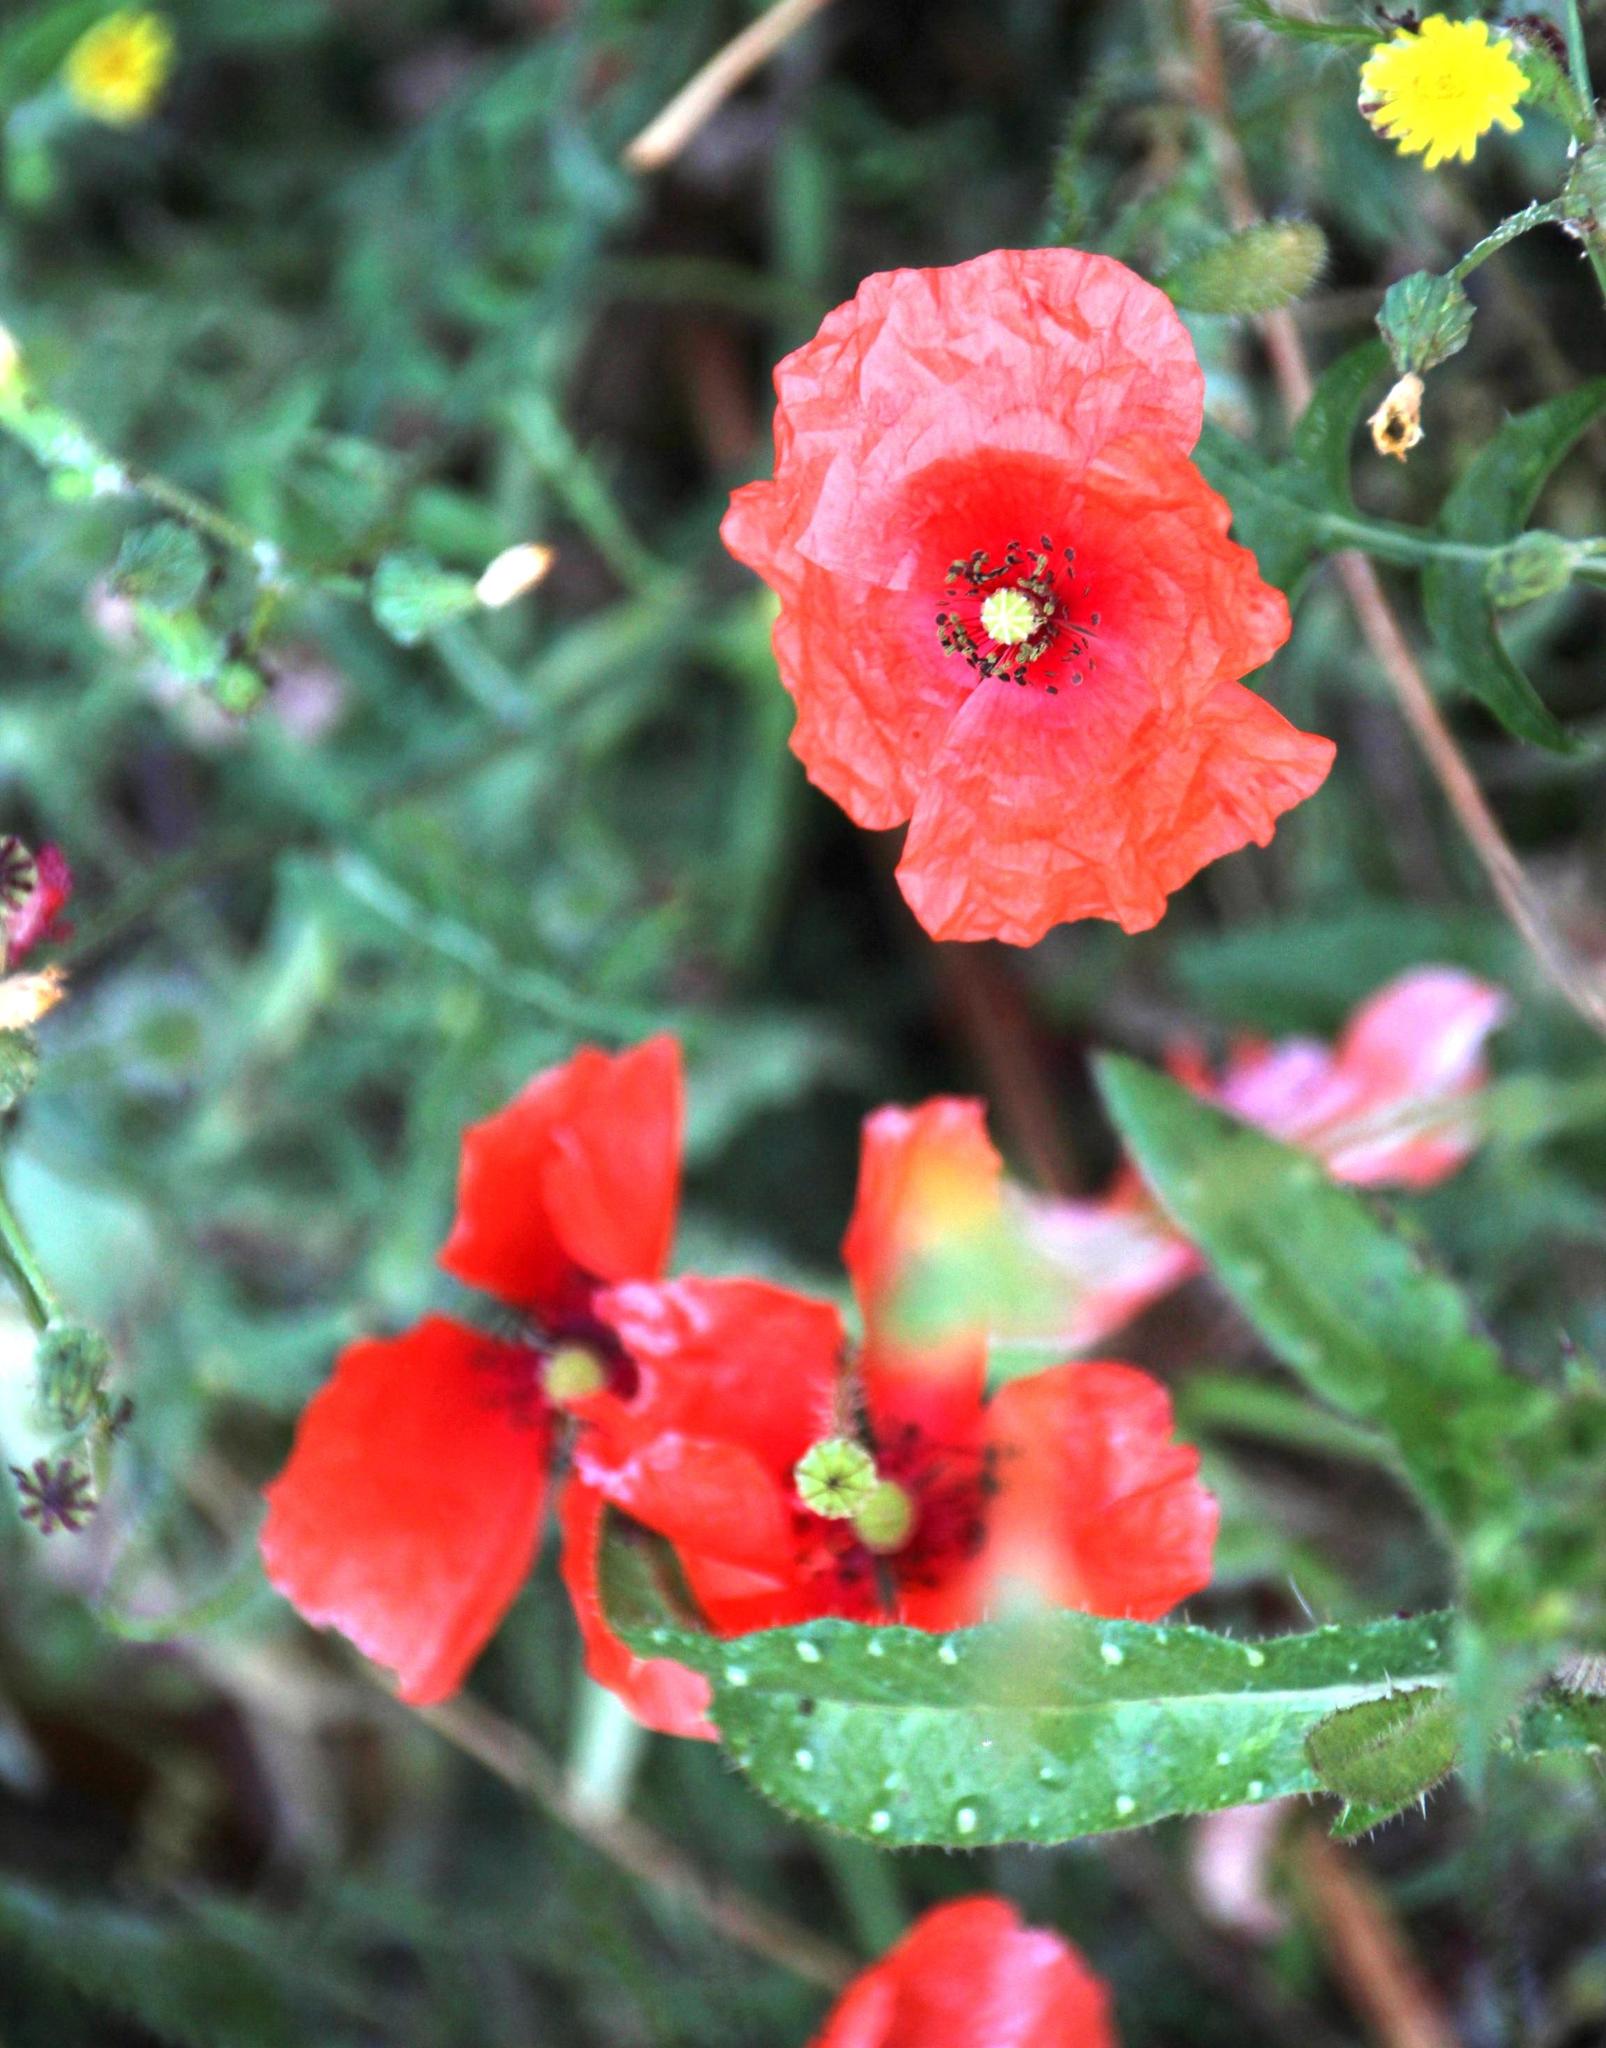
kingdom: Plantae
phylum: Tracheophyta
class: Magnoliopsida
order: Ranunculales
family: Papaveraceae
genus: Papaver
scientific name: Papaver rhoeas
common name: Corn poppy
